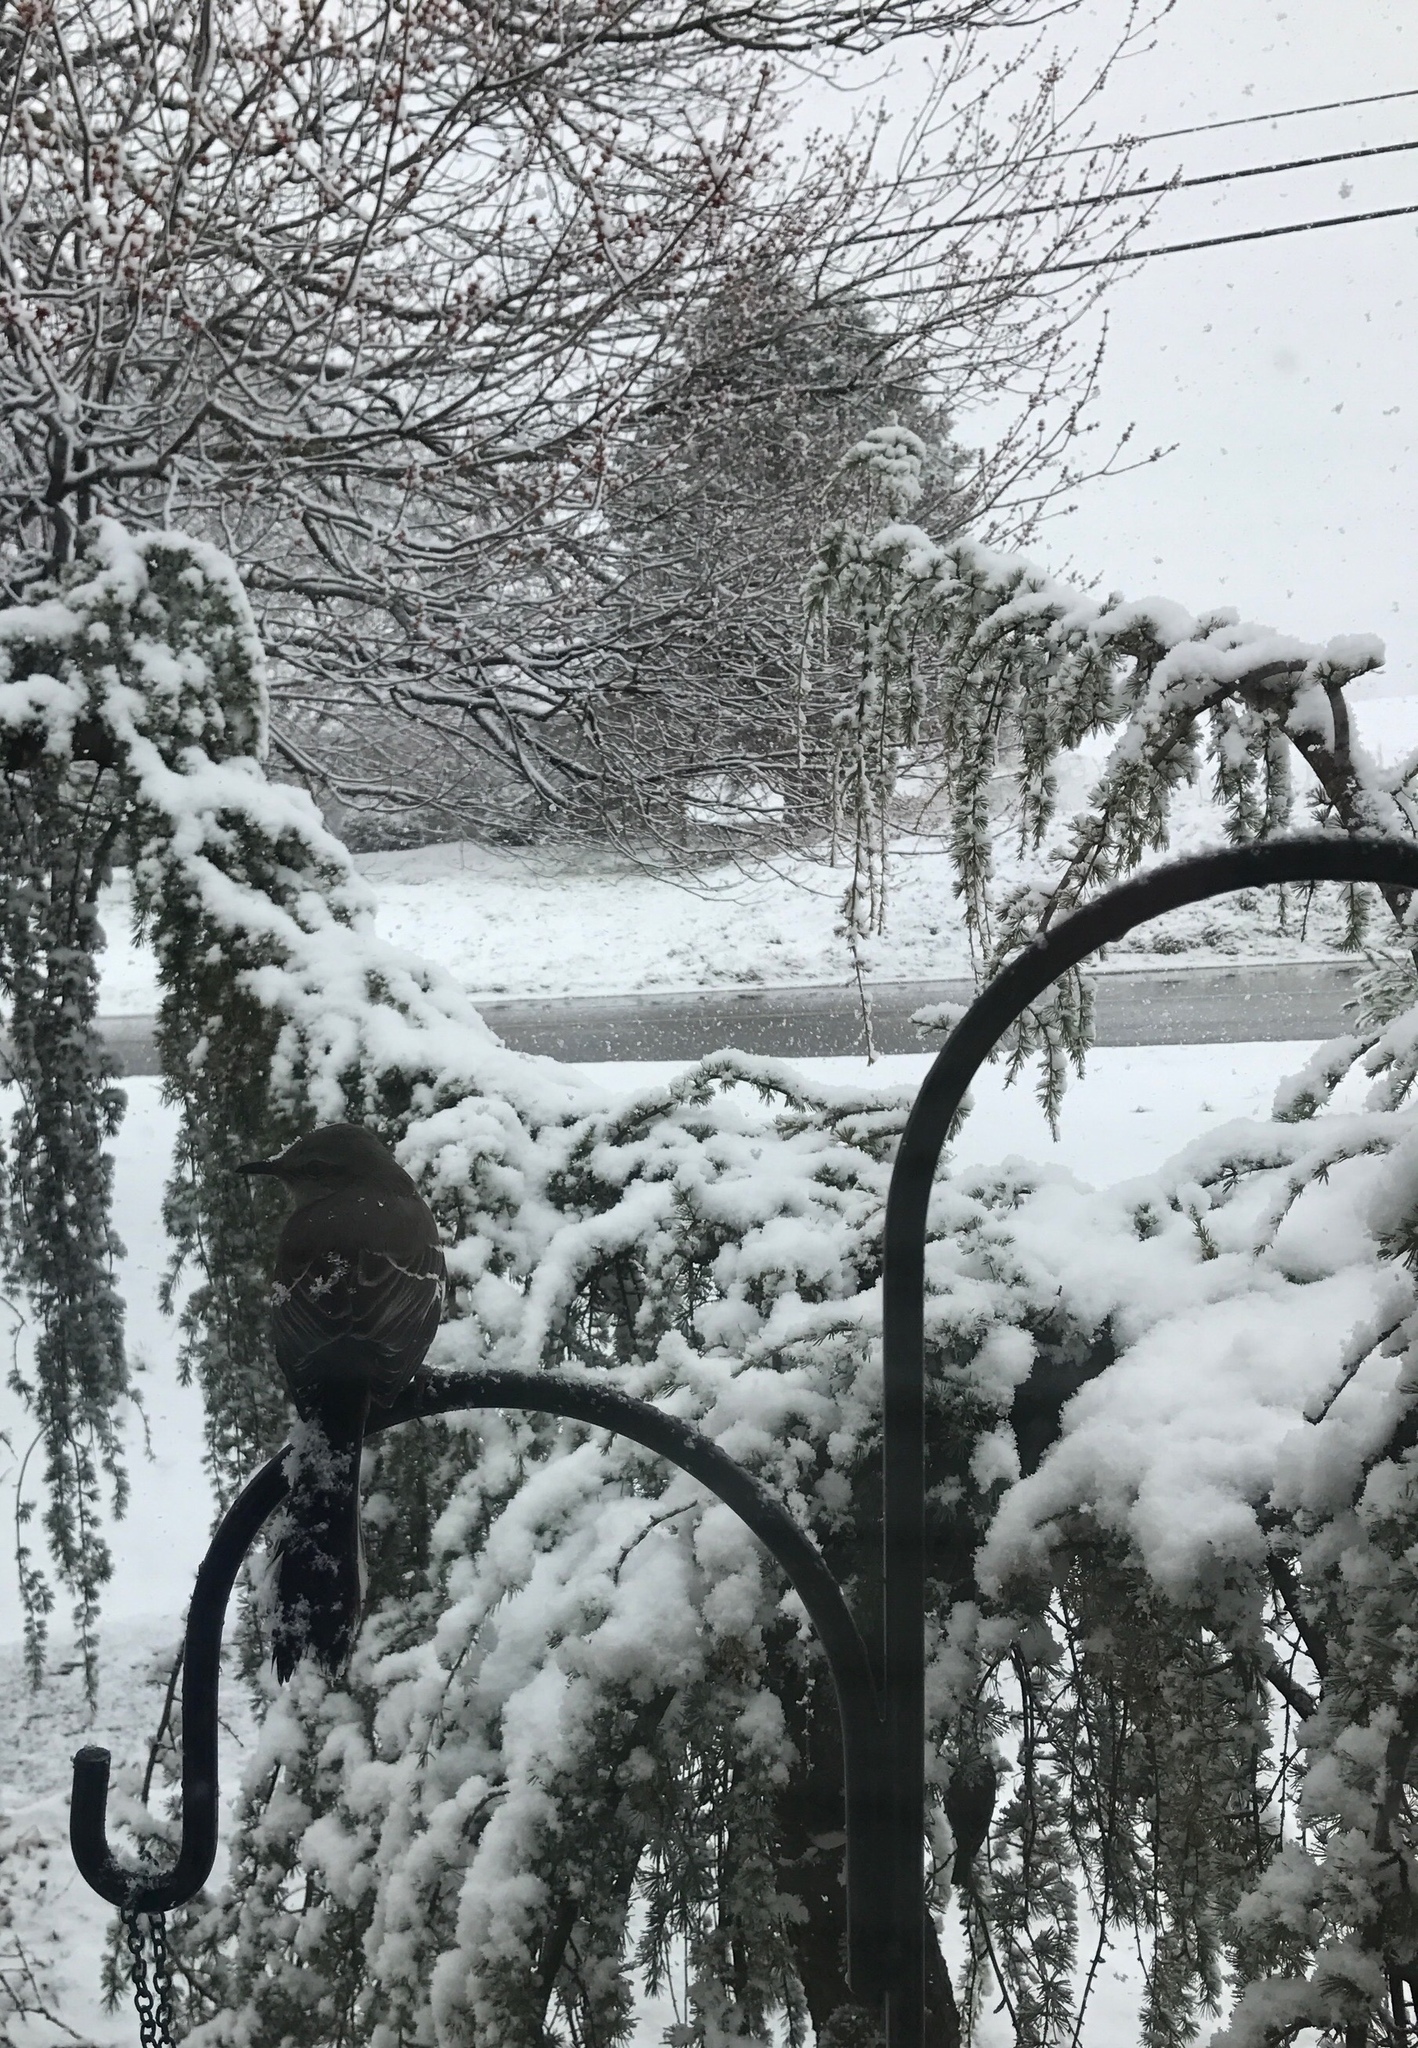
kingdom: Animalia
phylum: Chordata
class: Aves
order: Passeriformes
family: Mimidae
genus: Mimus
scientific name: Mimus polyglottos
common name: Northern mockingbird
